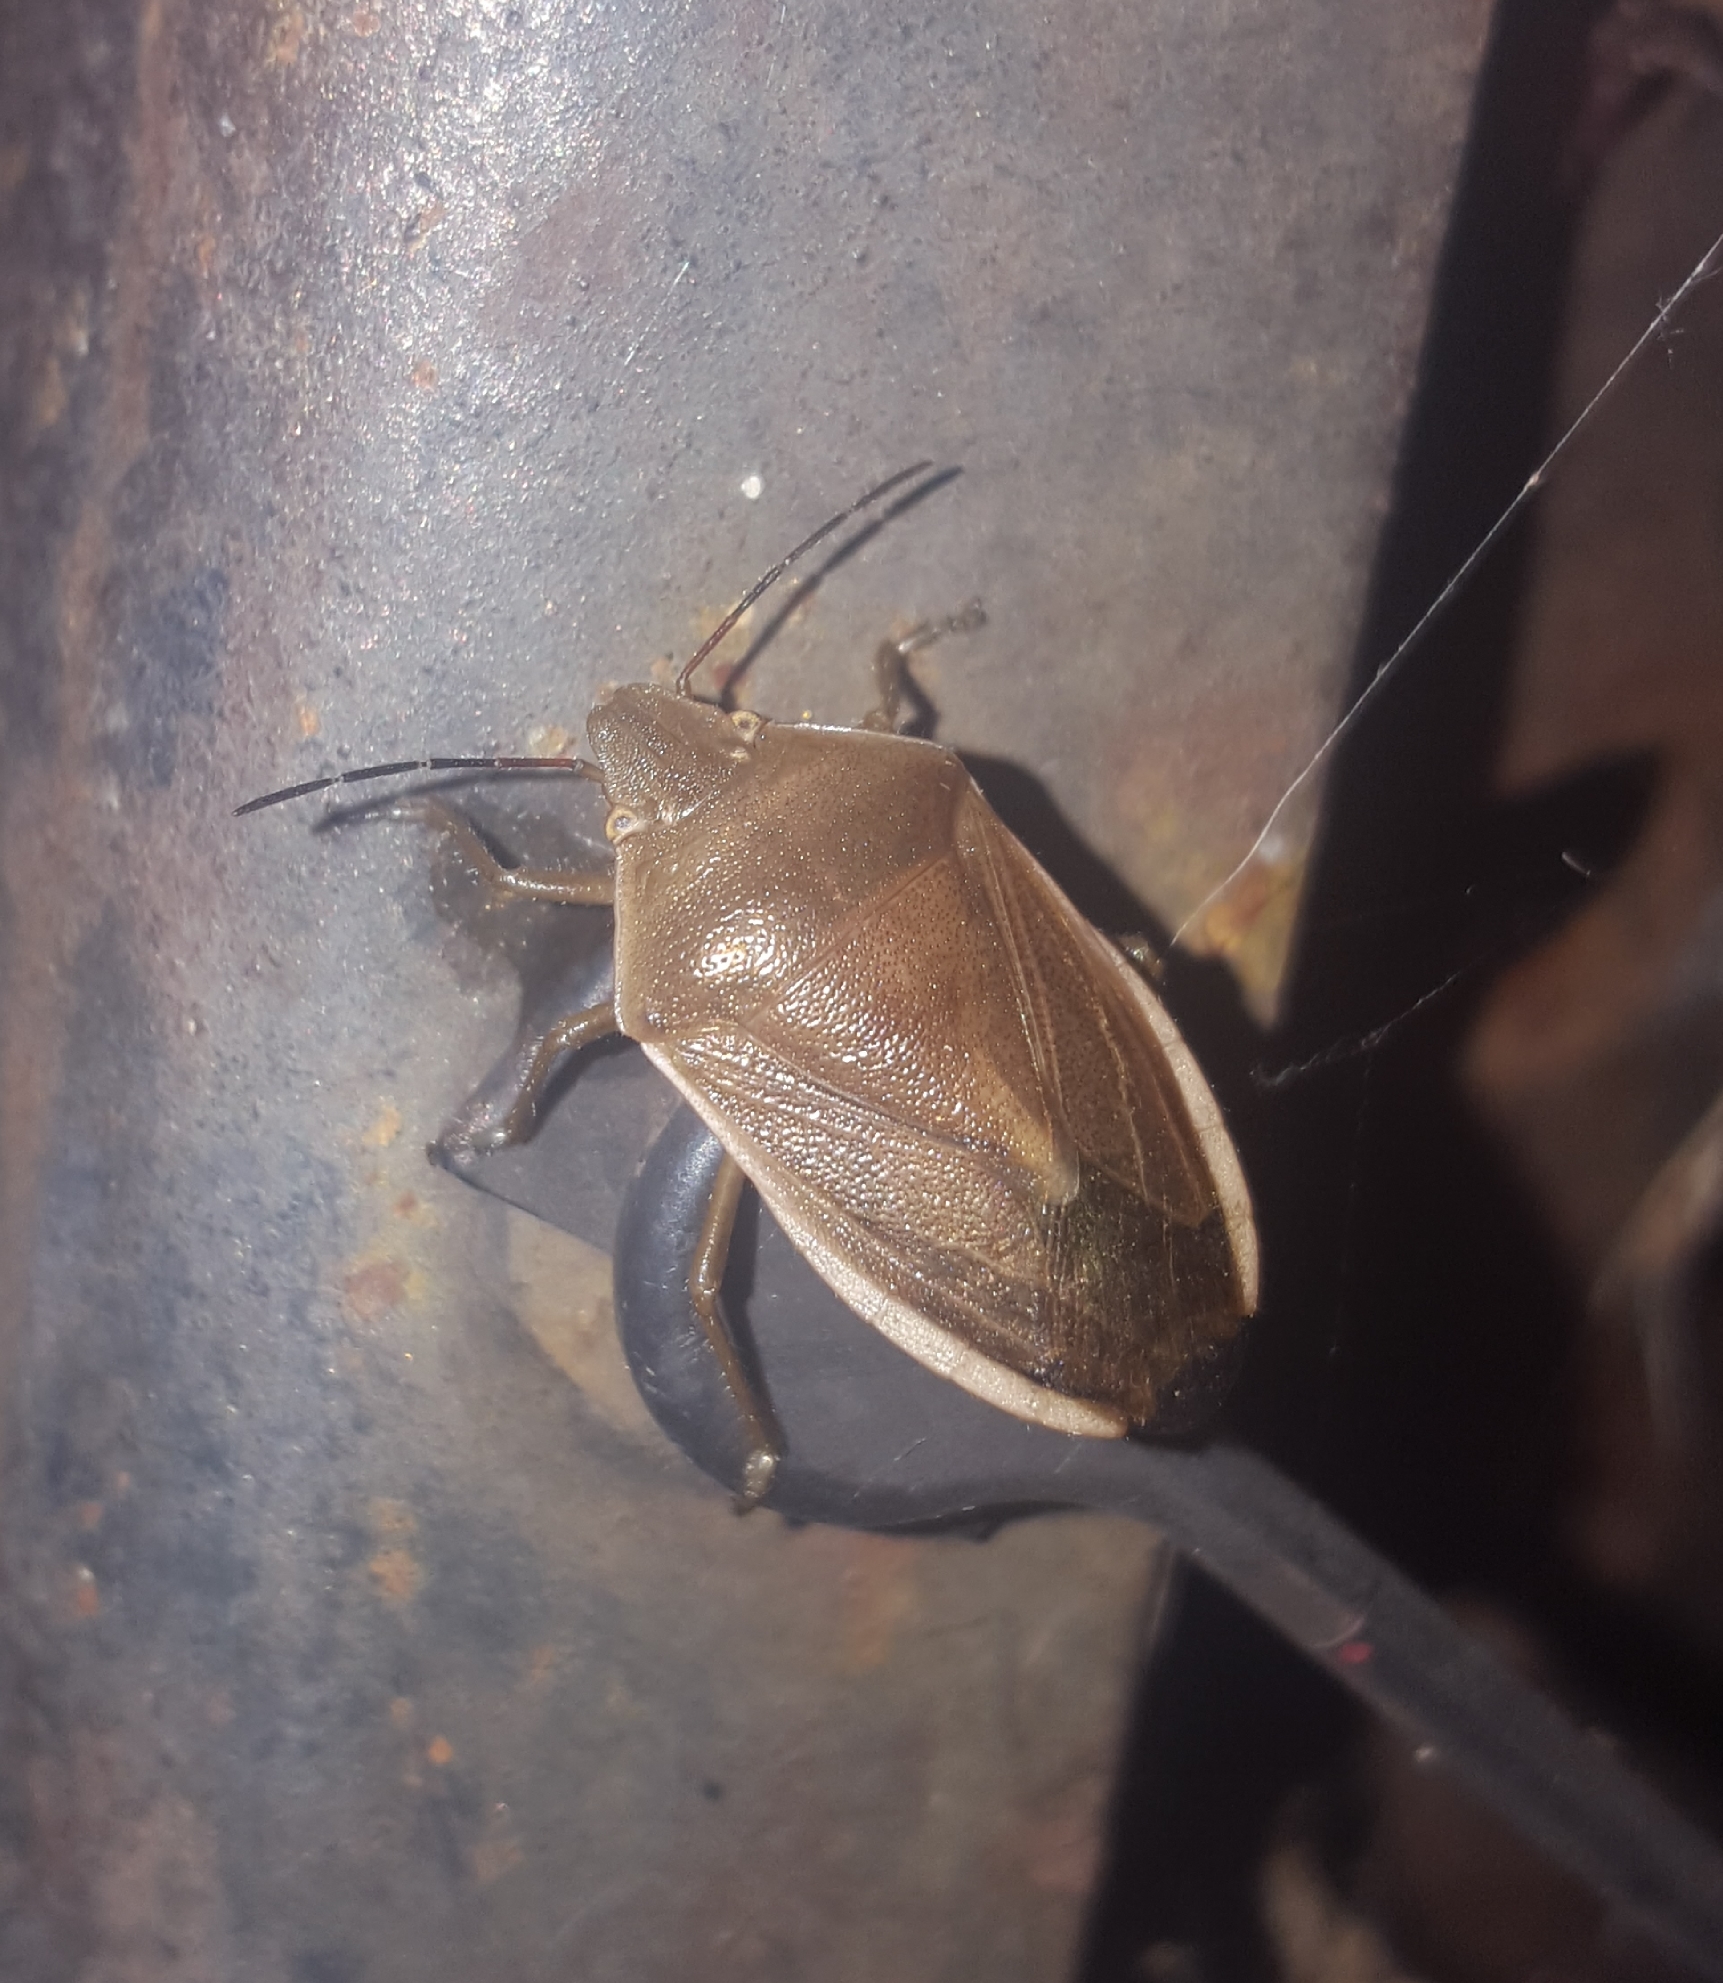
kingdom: Animalia
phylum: Arthropoda
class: Insecta
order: Hemiptera
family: Pentatomidae
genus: Chlorochroa
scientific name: Chlorochroa senilis
